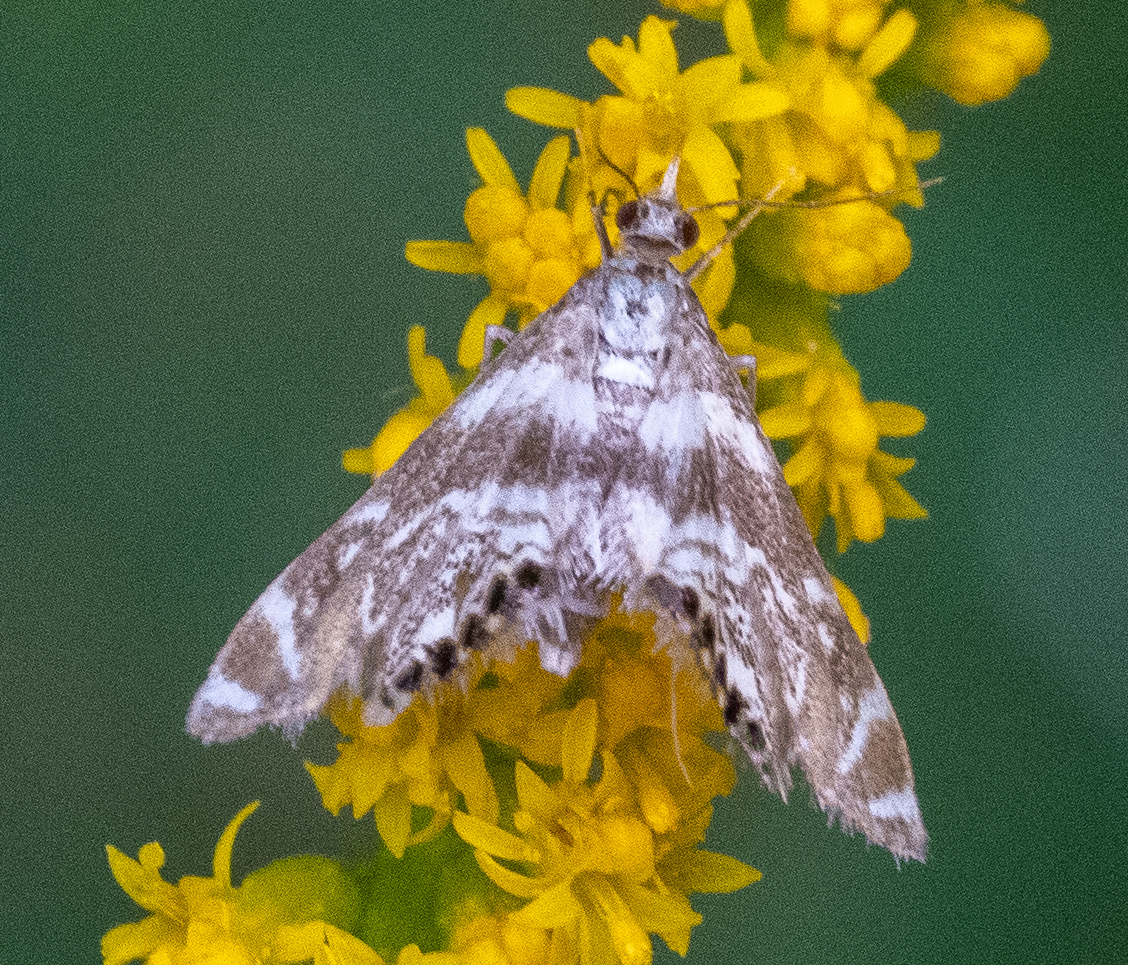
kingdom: Animalia
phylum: Arthropoda
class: Insecta
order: Lepidoptera
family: Crambidae
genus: Petrophila
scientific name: Petrophila canadensis
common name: Canadian petrophila
